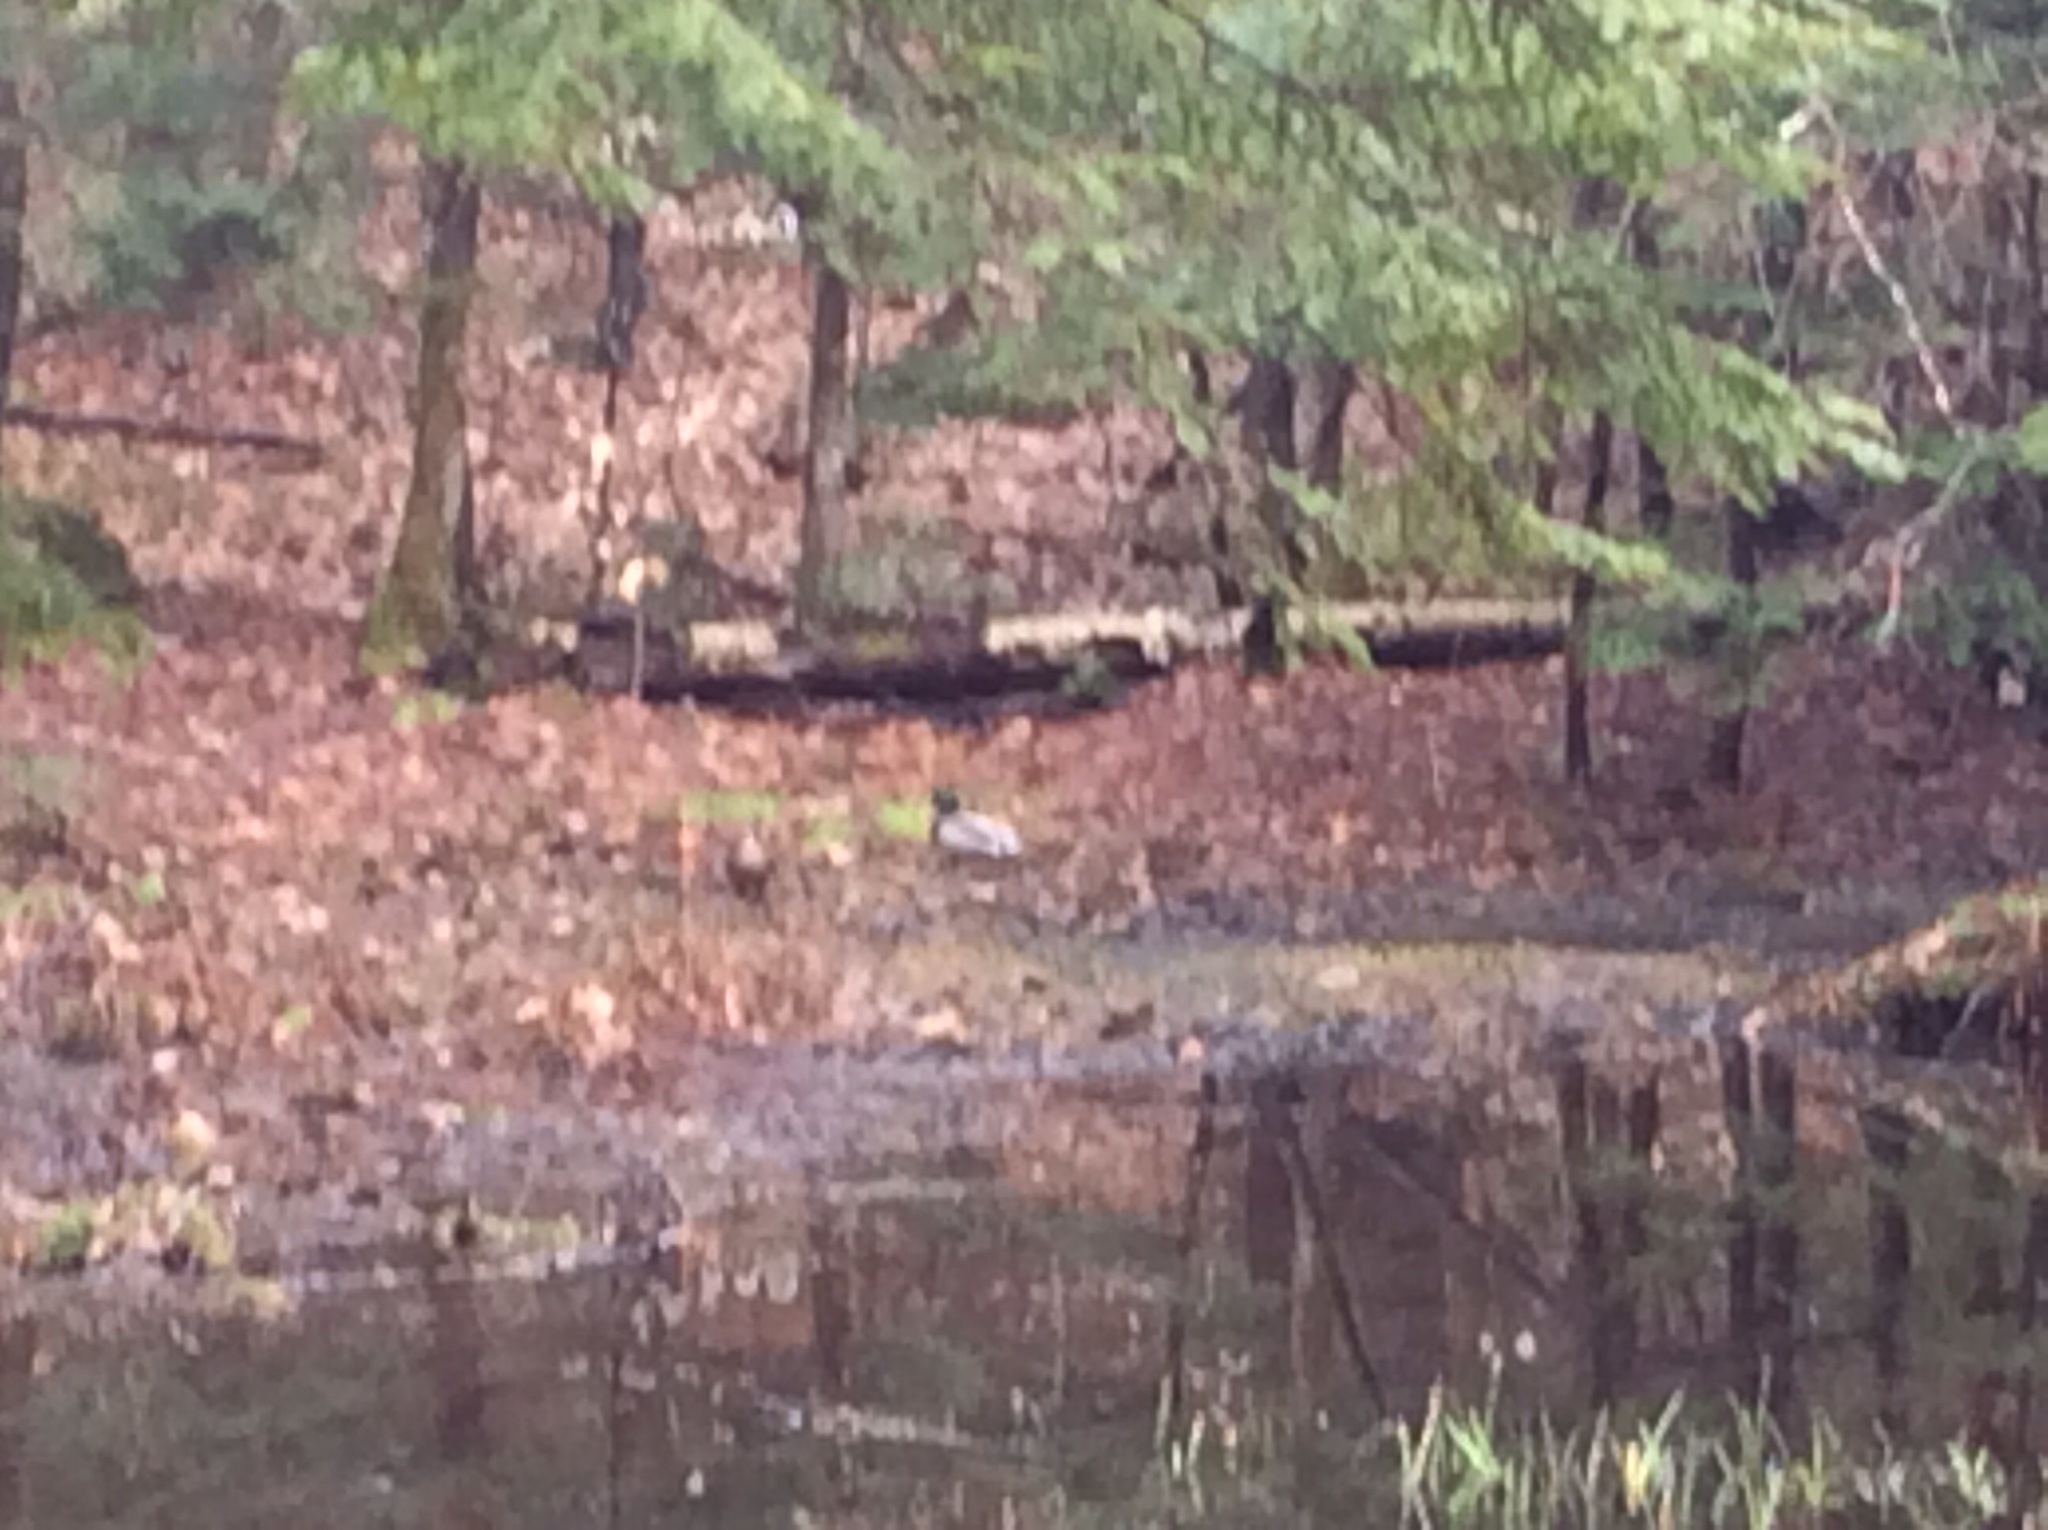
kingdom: Animalia
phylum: Chordata
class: Aves
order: Anseriformes
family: Anatidae
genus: Anas
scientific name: Anas platyrhynchos
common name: Mallard
